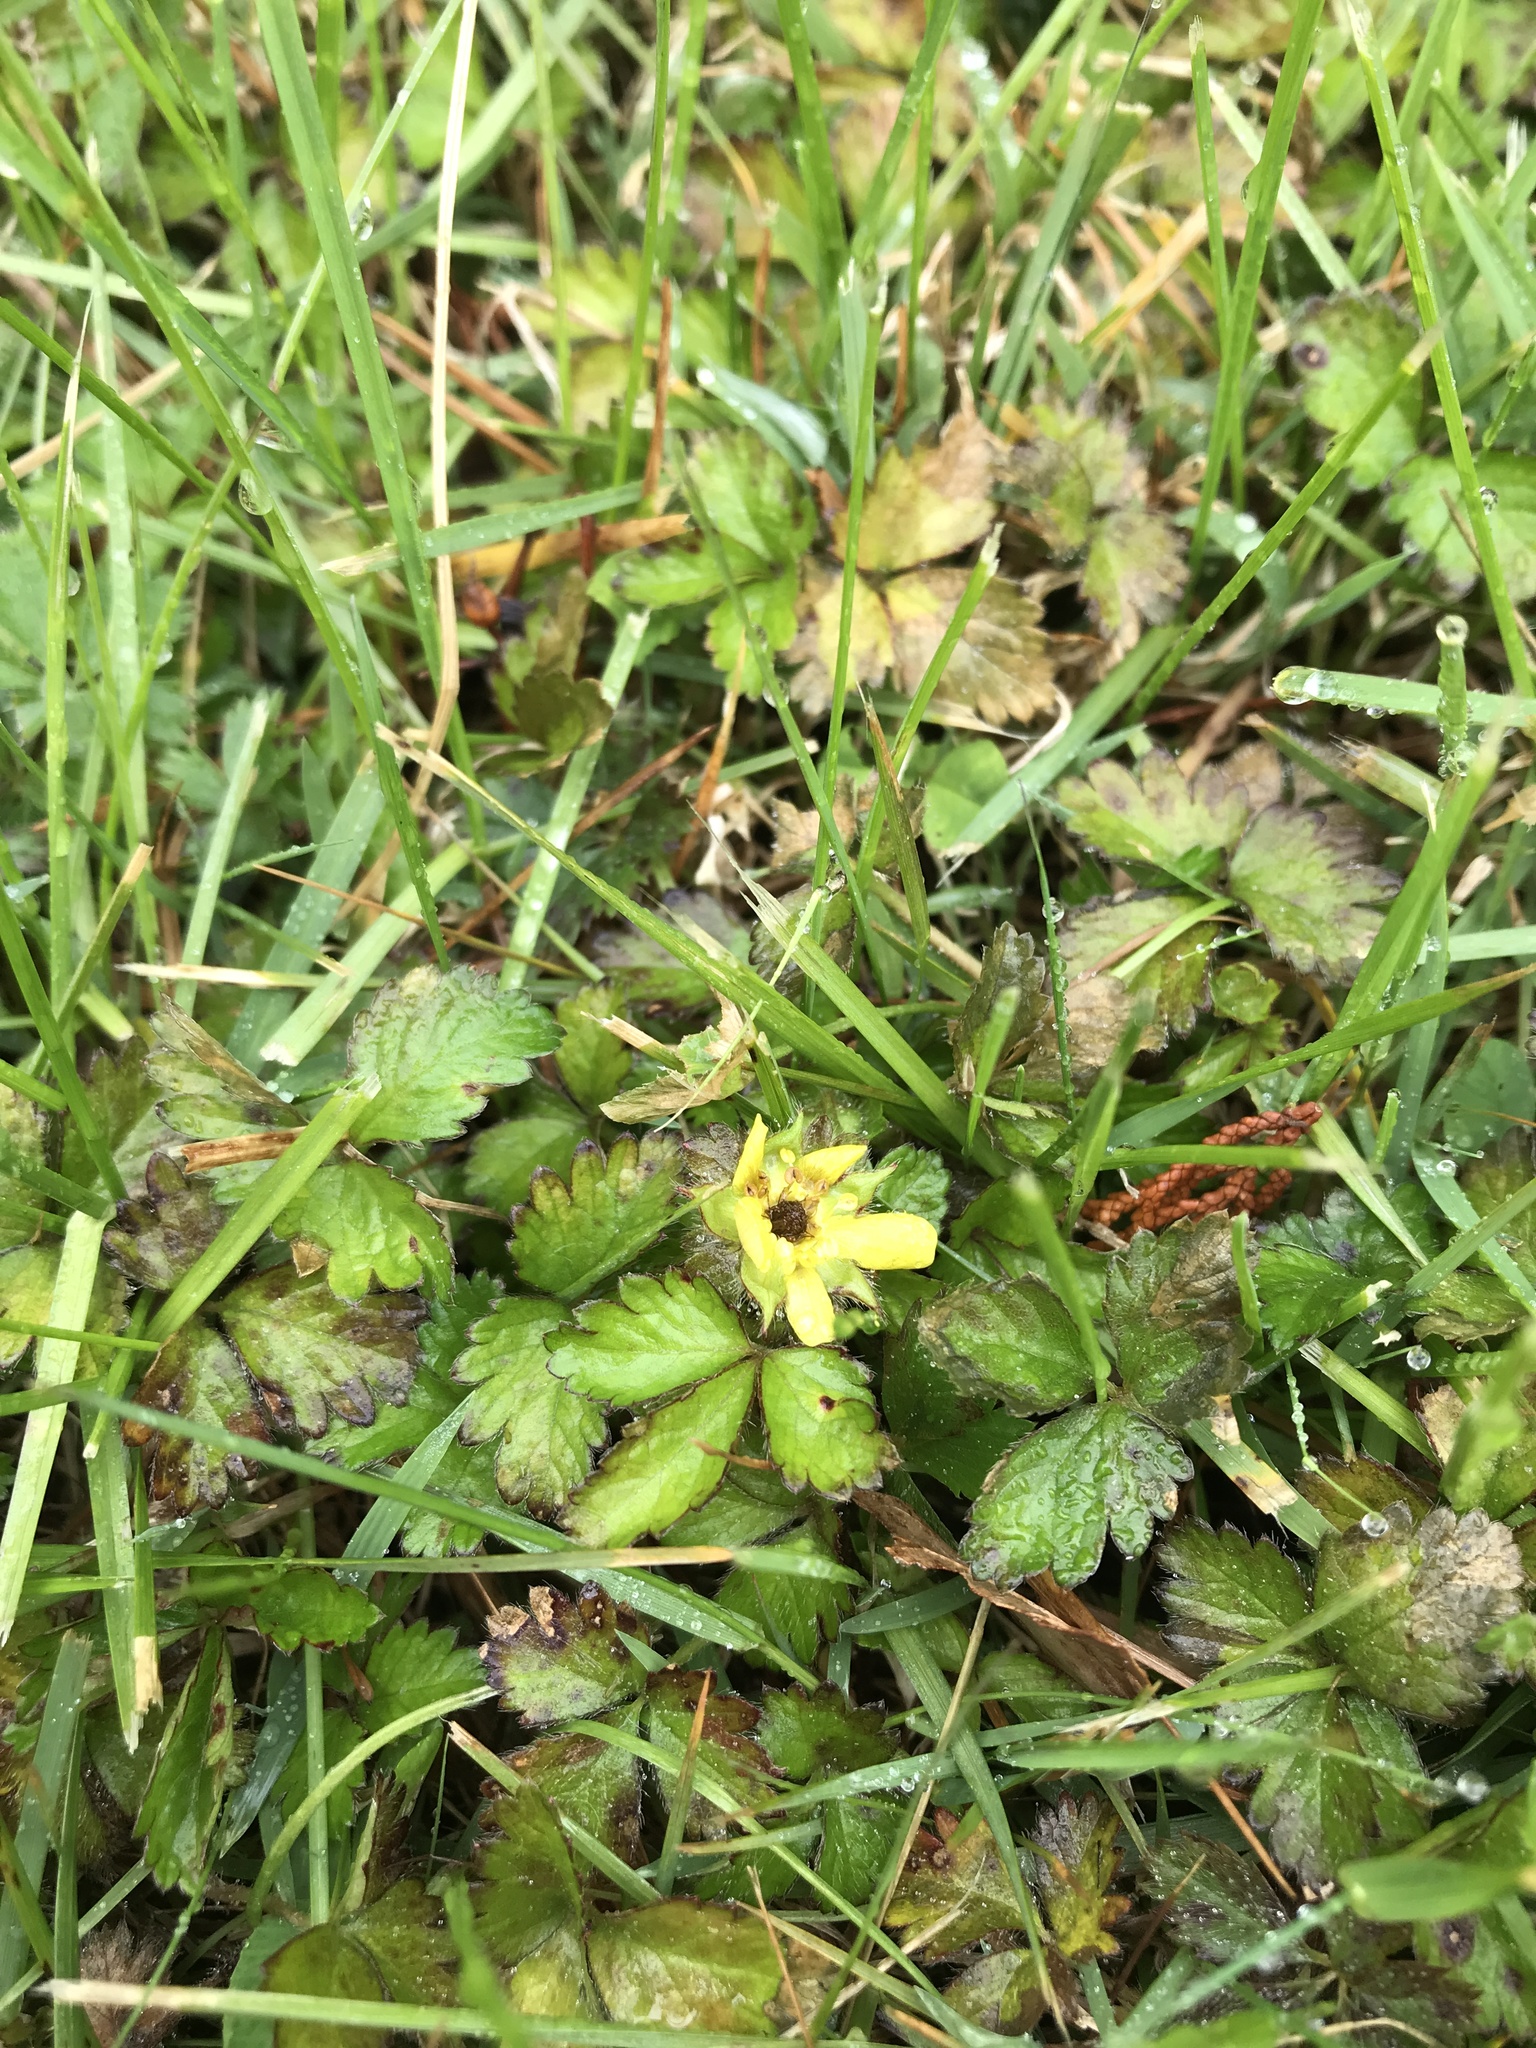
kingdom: Plantae
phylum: Tracheophyta
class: Magnoliopsida
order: Rosales
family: Rosaceae
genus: Potentilla
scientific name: Potentilla indica
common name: Yellow-flowered strawberry
